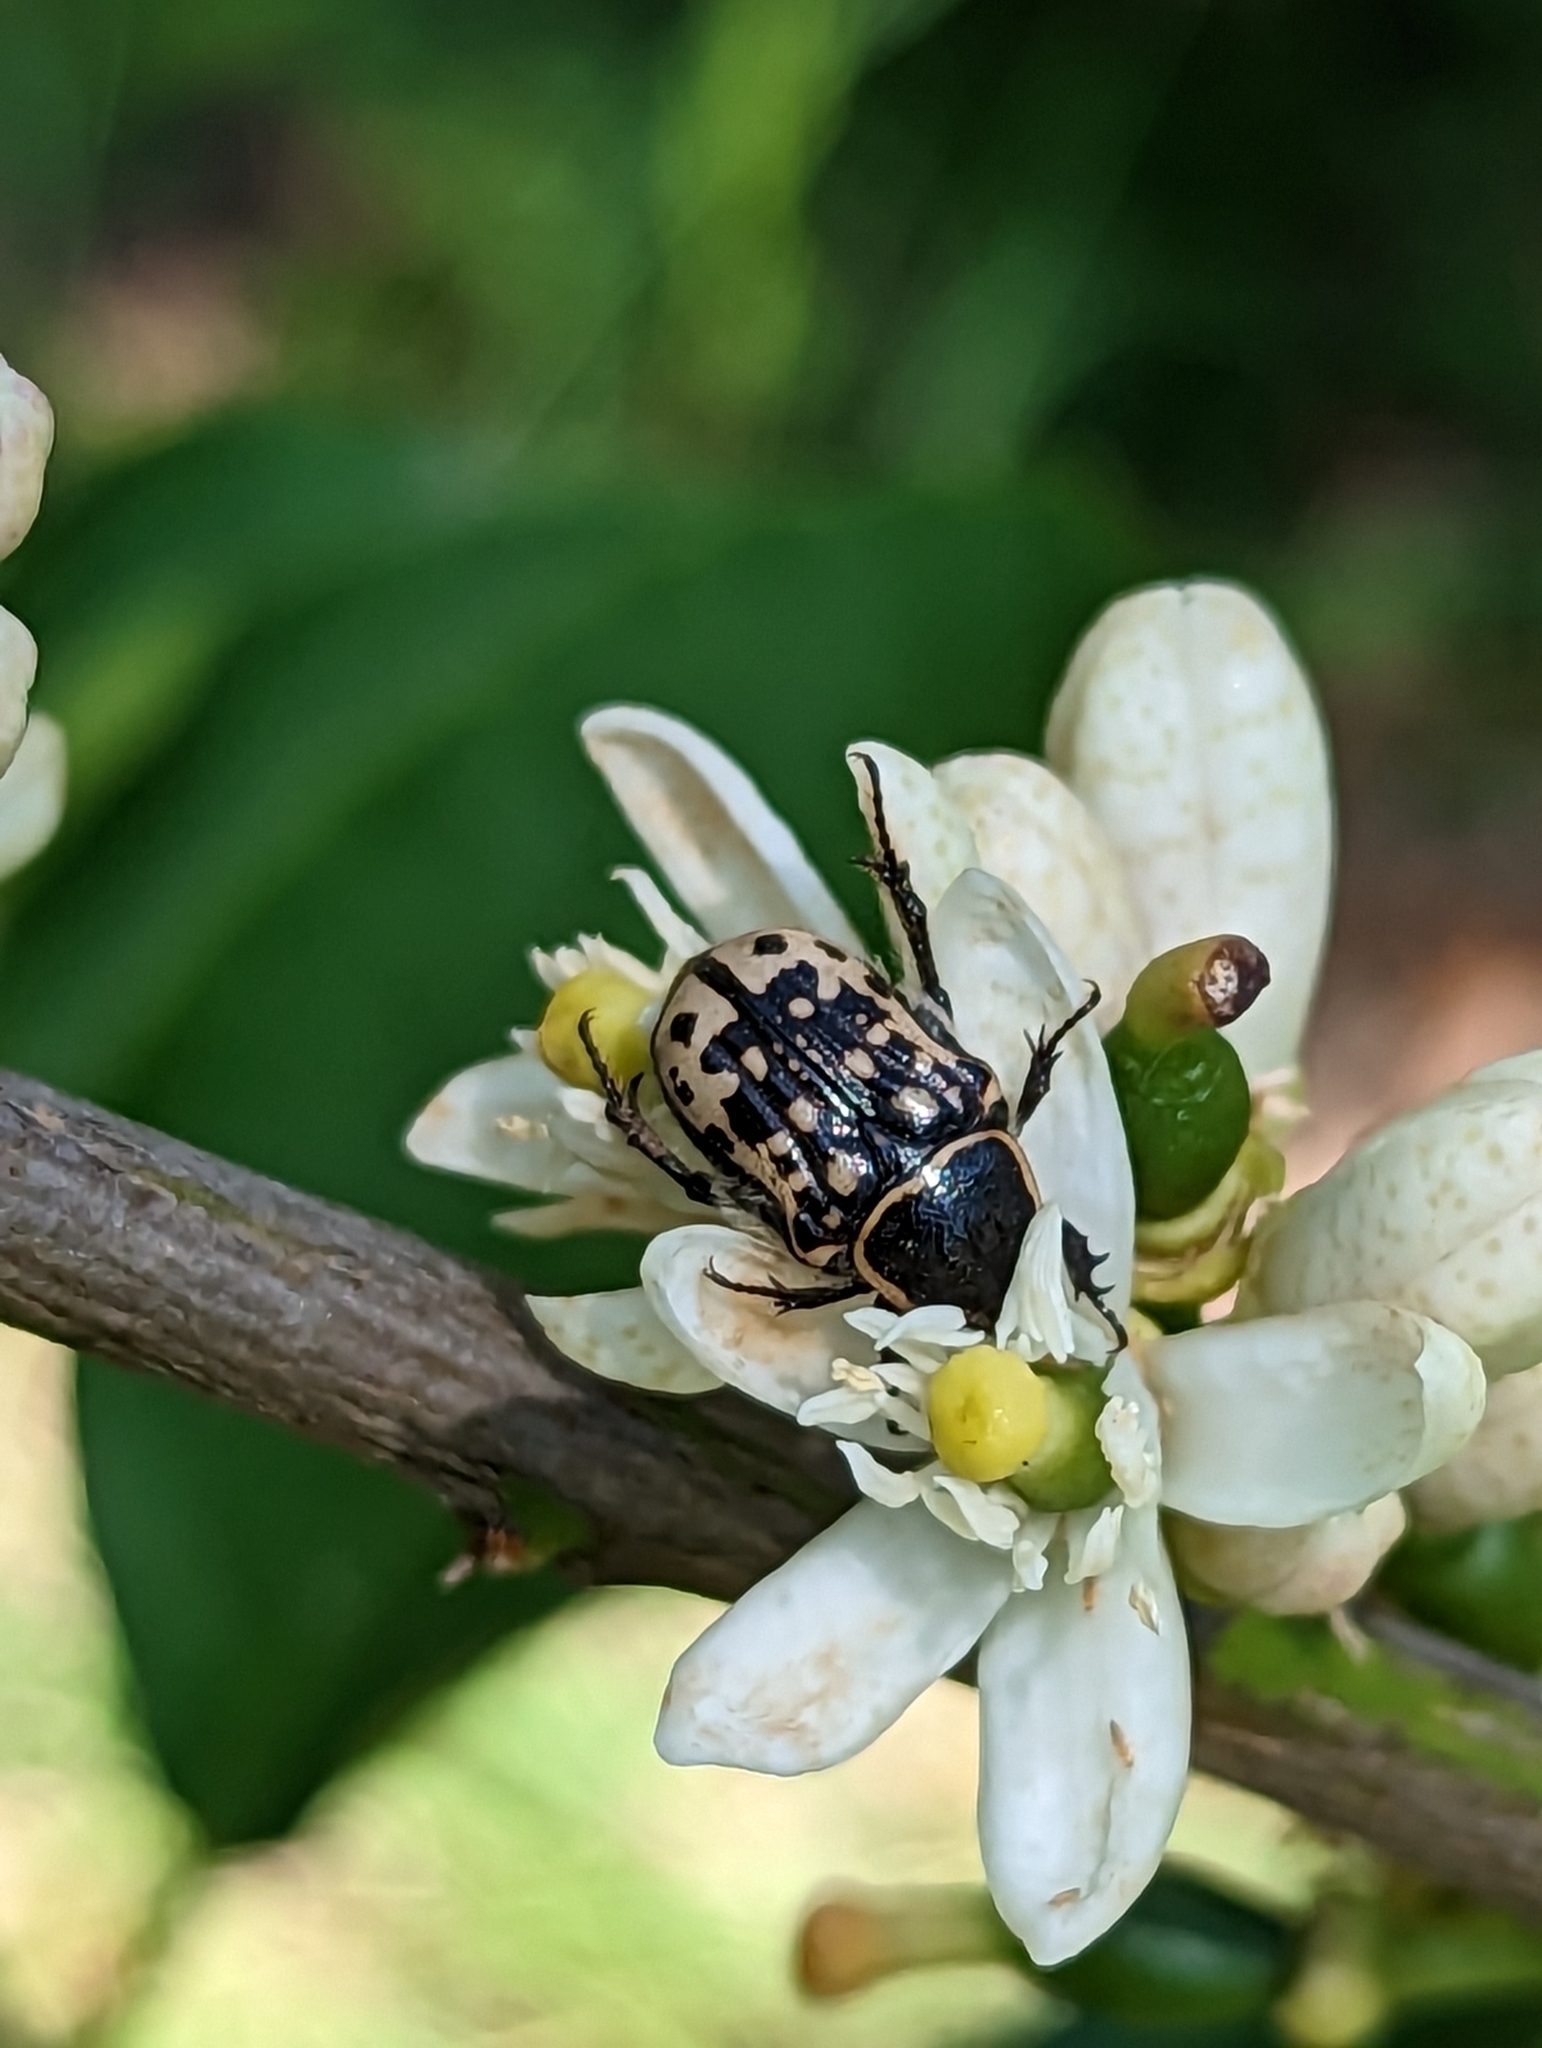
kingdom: Animalia
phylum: Arthropoda
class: Insecta
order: Coleoptera
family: Scarabaeidae
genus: Euphoria
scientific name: Euphoria kernii
